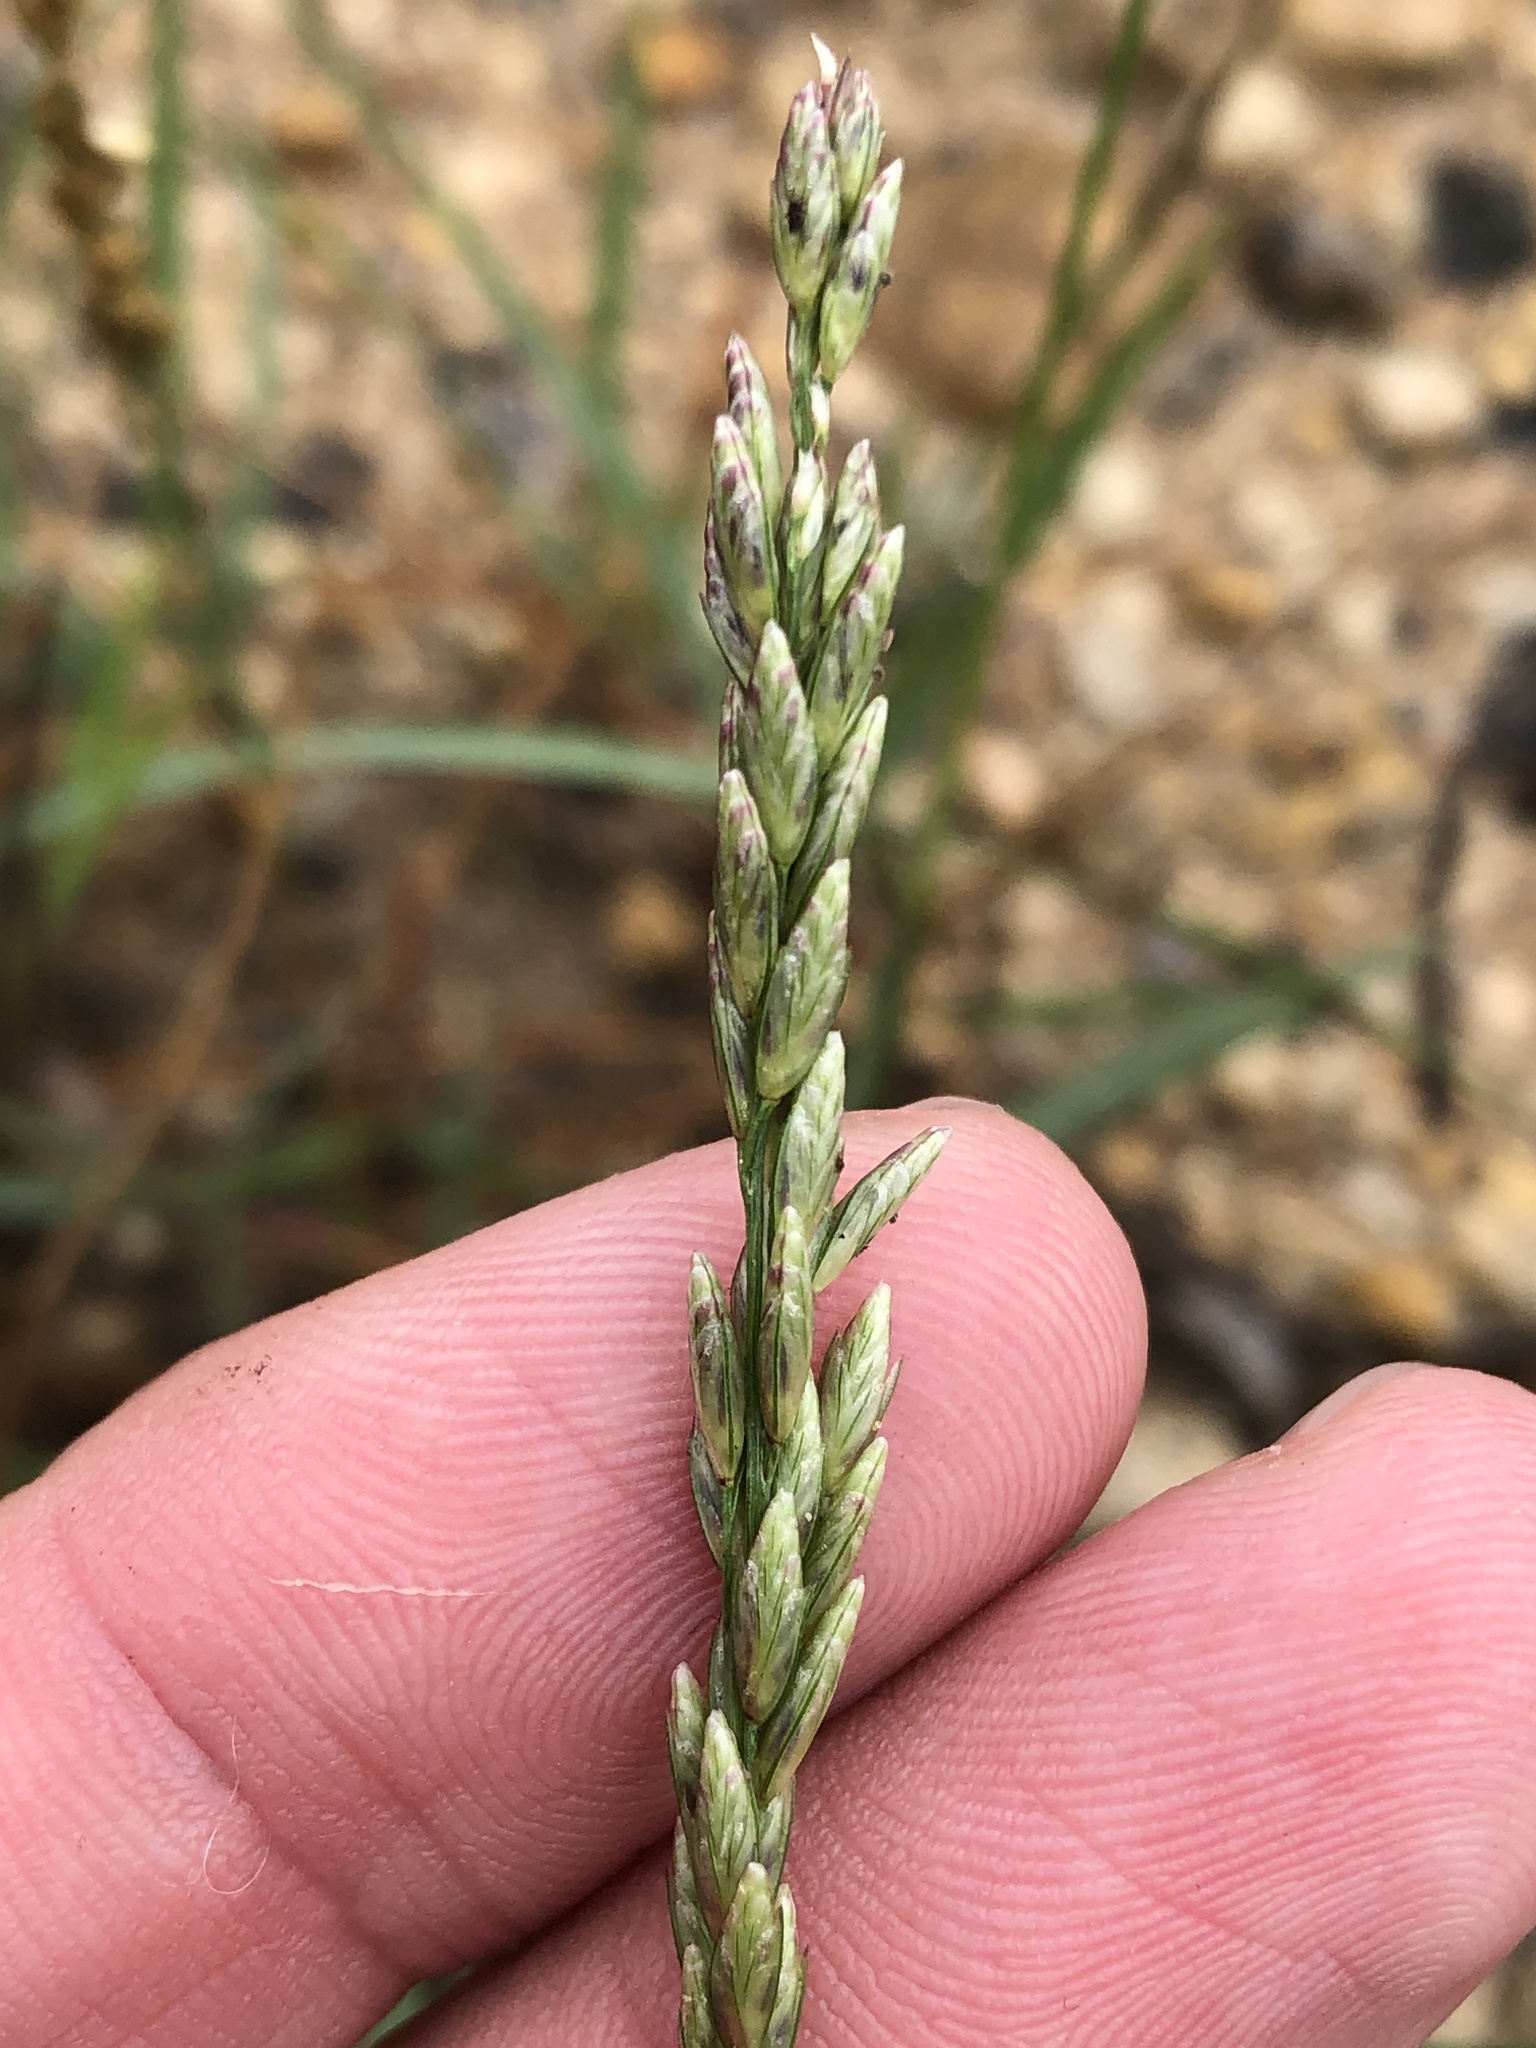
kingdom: Plantae
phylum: Tracheophyta
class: Liliopsida
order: Poales
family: Poaceae
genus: Tridens
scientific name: Tridens albescens
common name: White tridens
